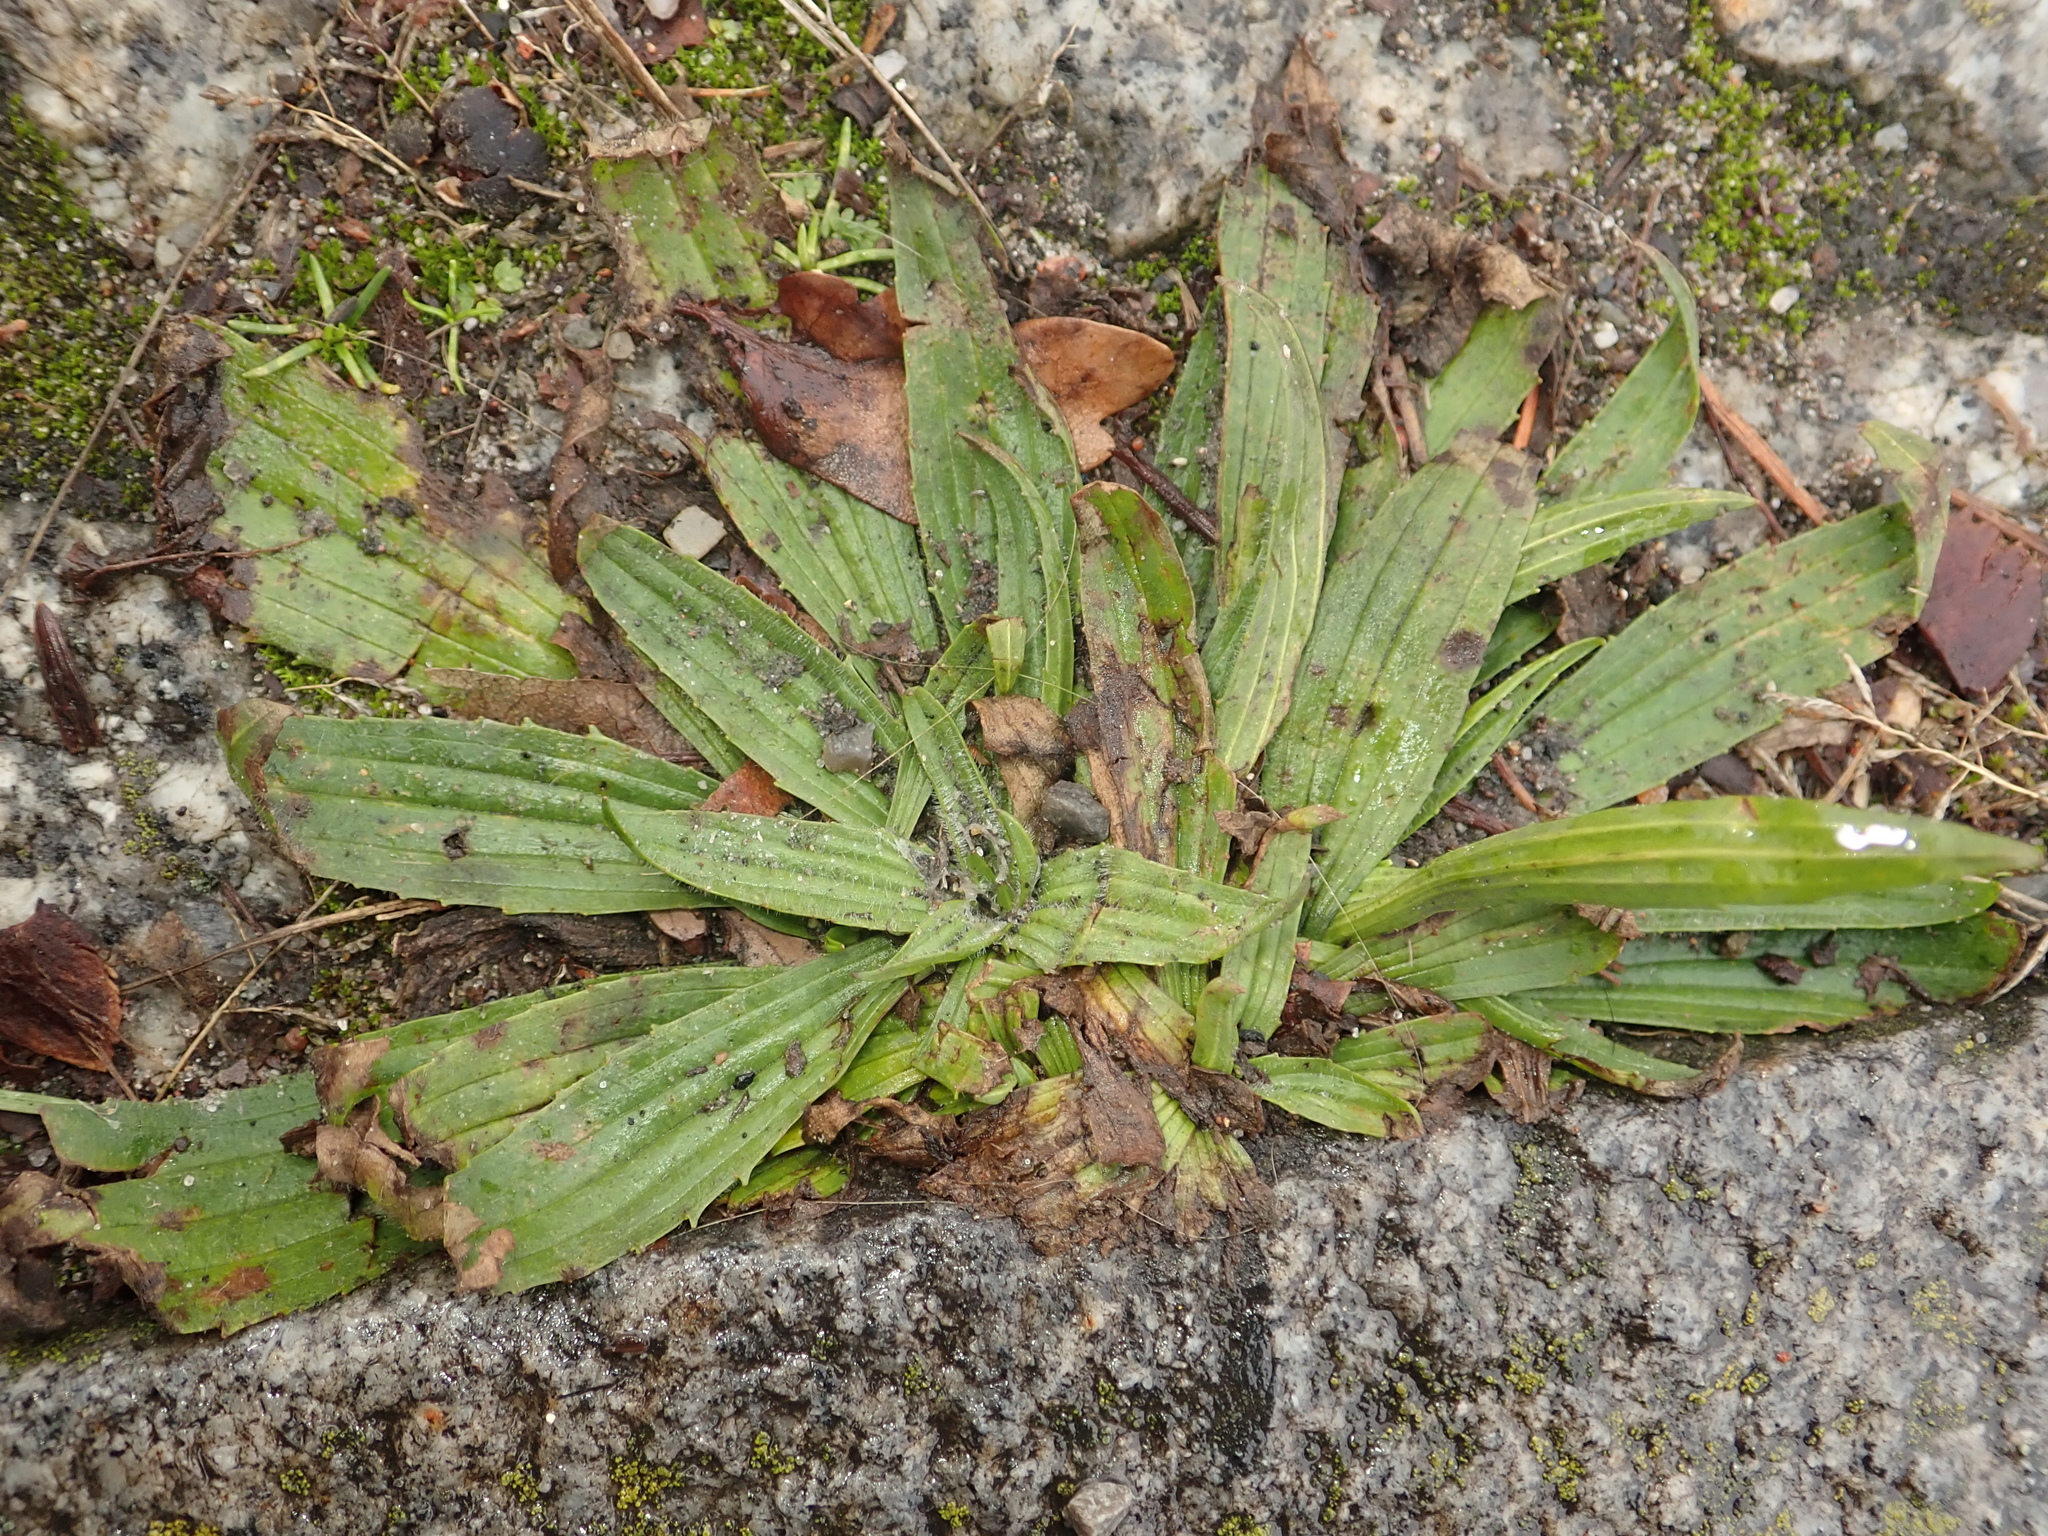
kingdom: Plantae
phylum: Tracheophyta
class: Magnoliopsida
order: Lamiales
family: Plantaginaceae
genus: Plantago
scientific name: Plantago lanceolata
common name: Ribwort plantain
